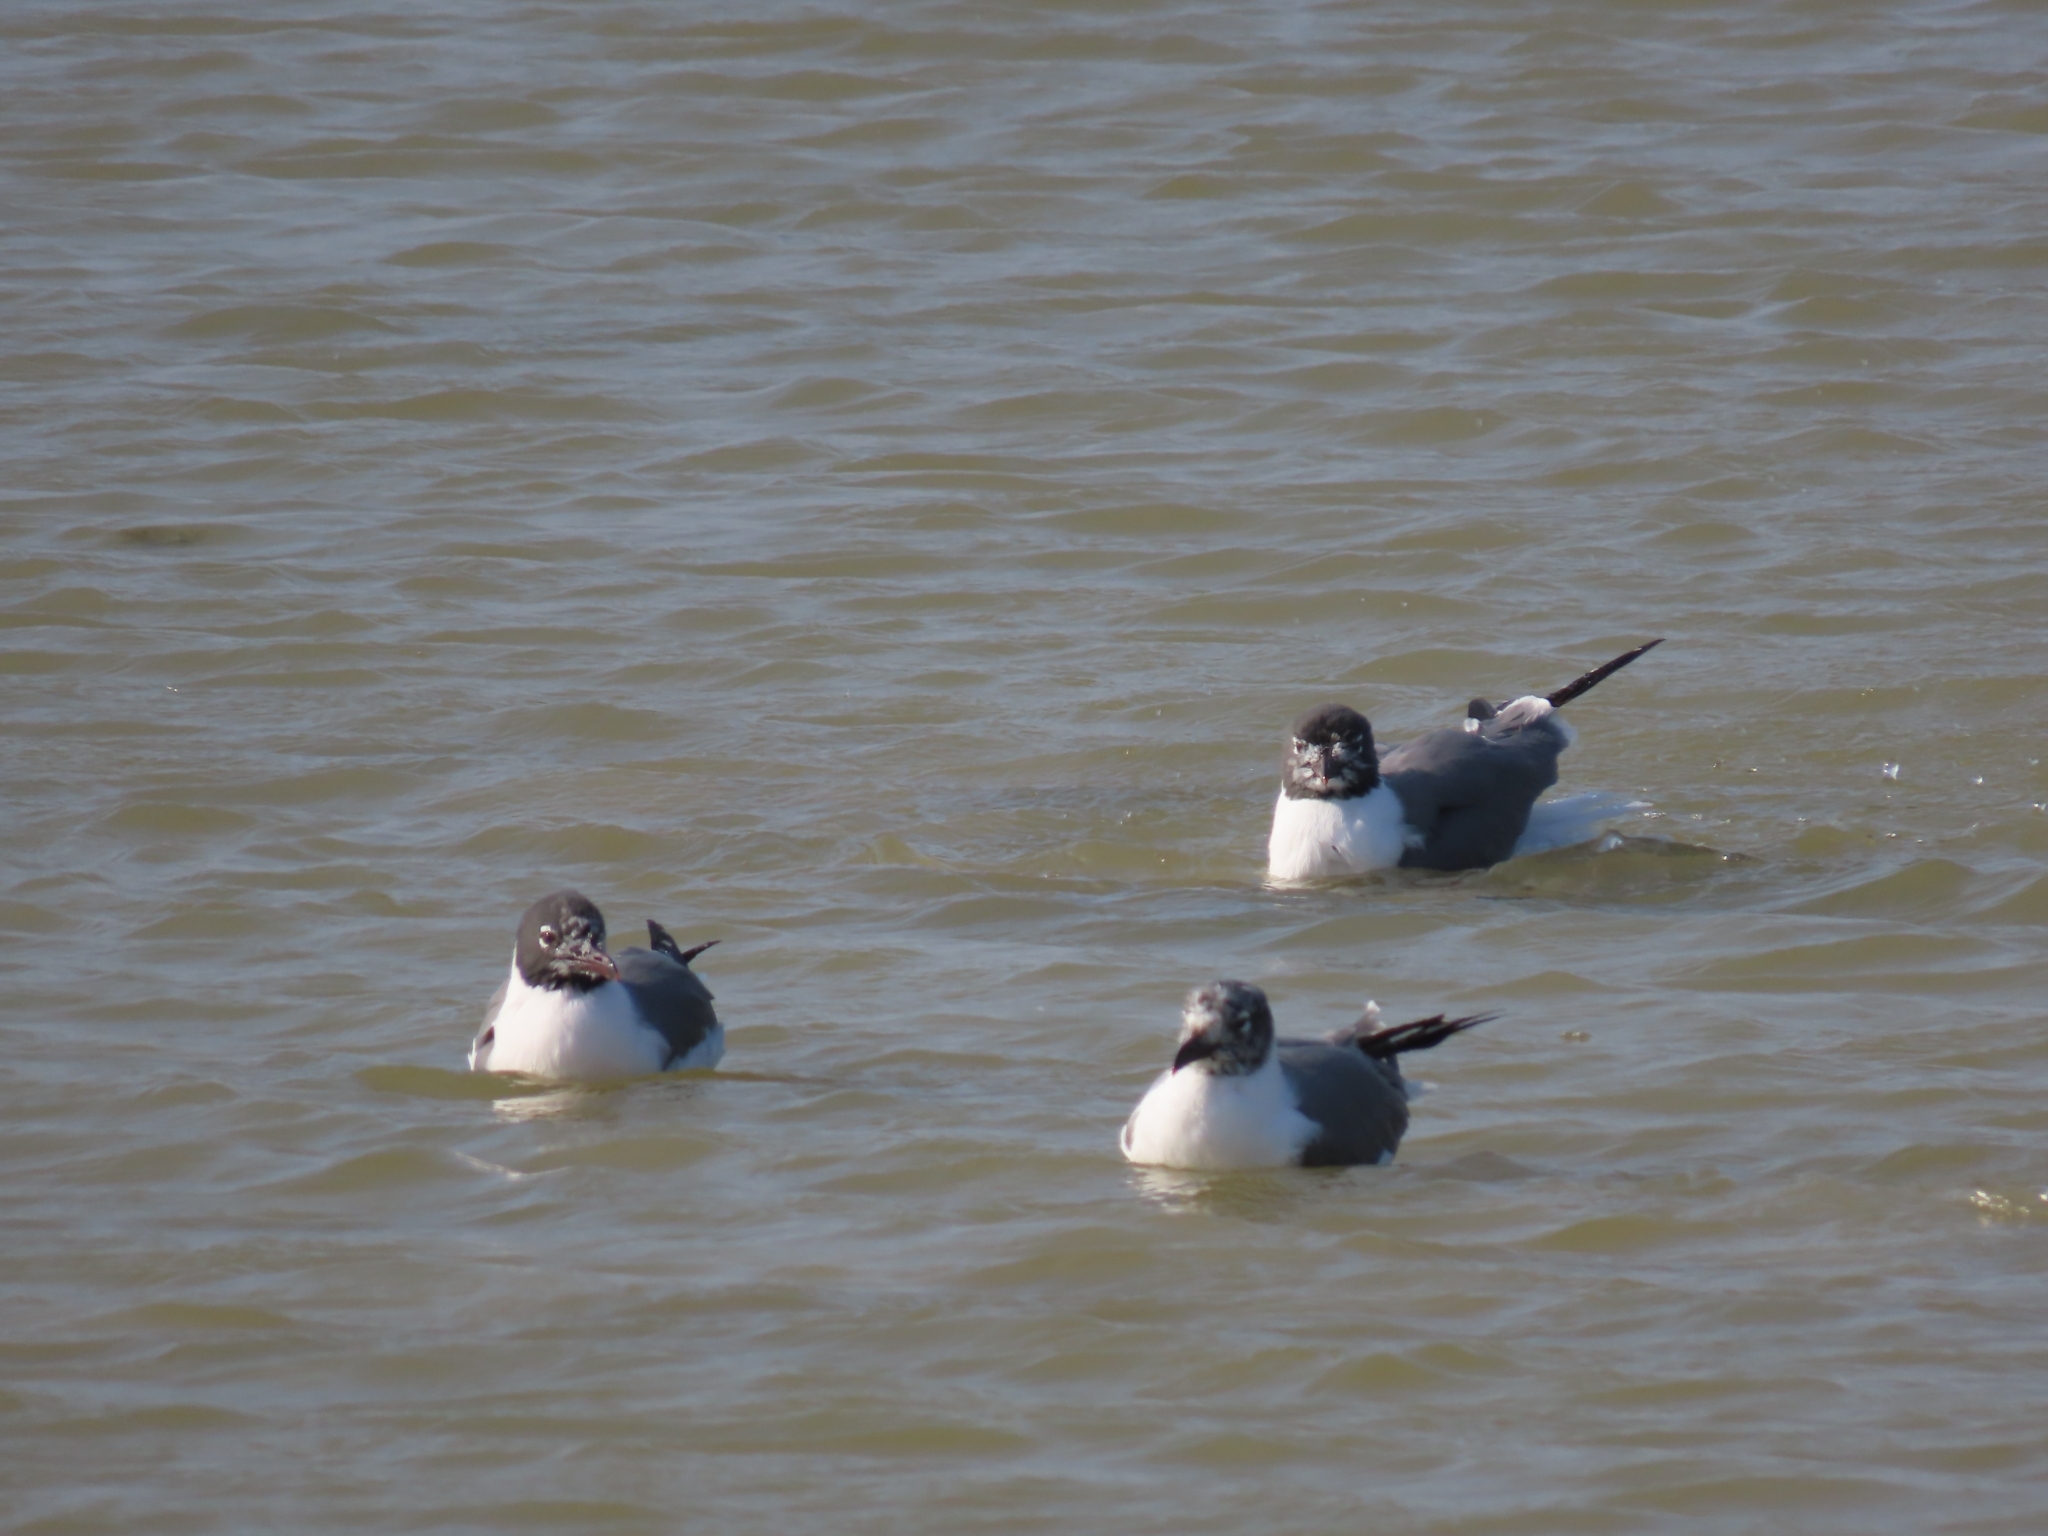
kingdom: Animalia
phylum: Chordata
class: Aves
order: Charadriiformes
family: Laridae
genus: Leucophaeus
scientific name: Leucophaeus atricilla
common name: Laughing gull
